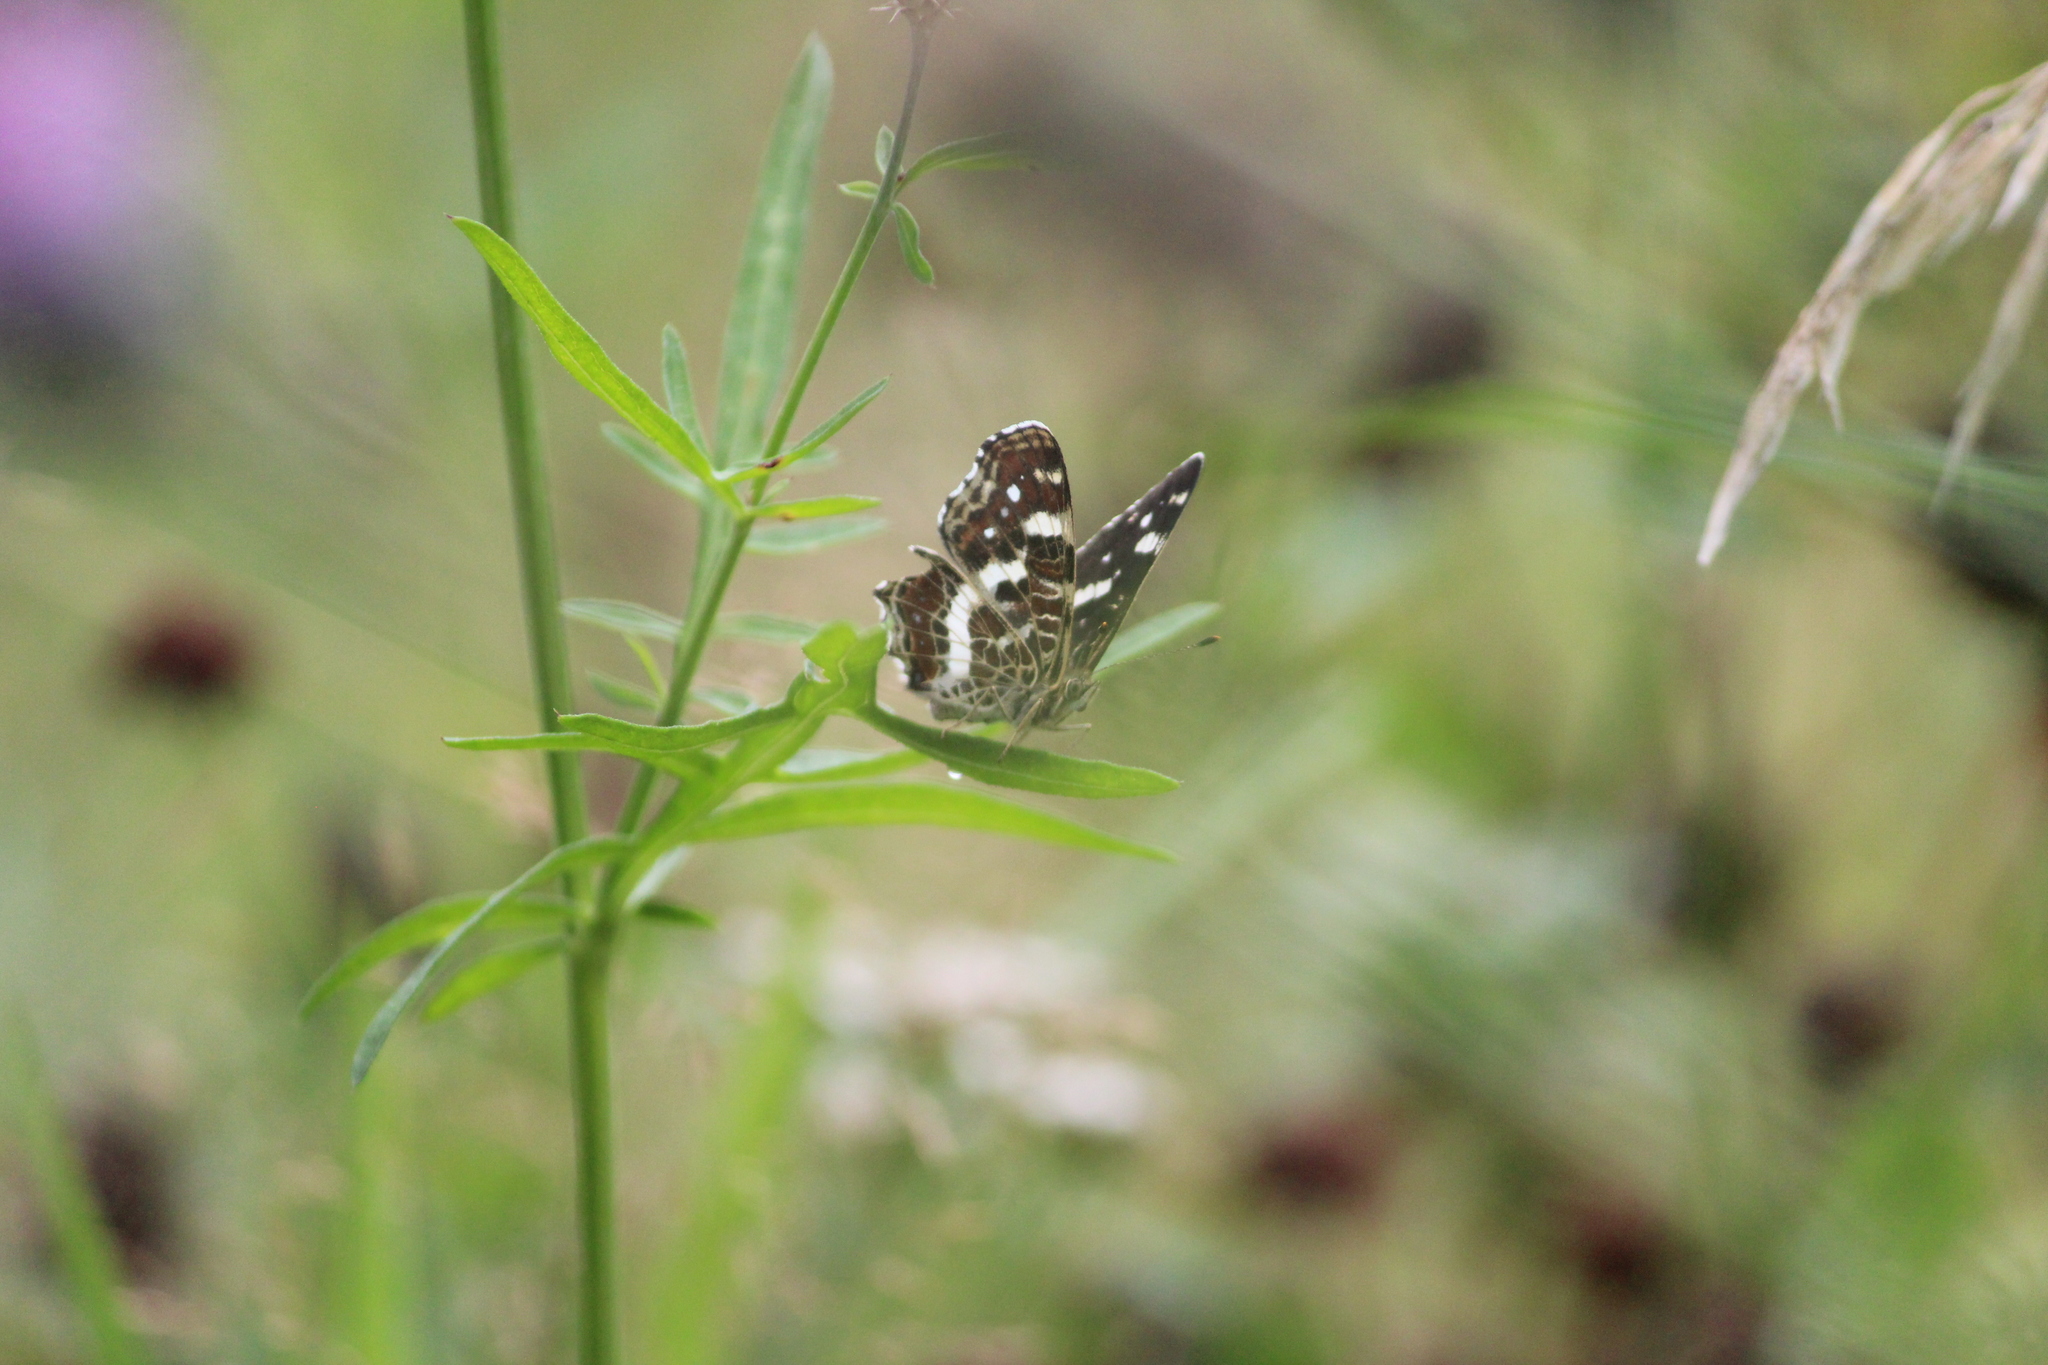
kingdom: Animalia
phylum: Arthropoda
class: Insecta
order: Lepidoptera
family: Nymphalidae
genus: Araschnia
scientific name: Araschnia levana
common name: Map butterfly
